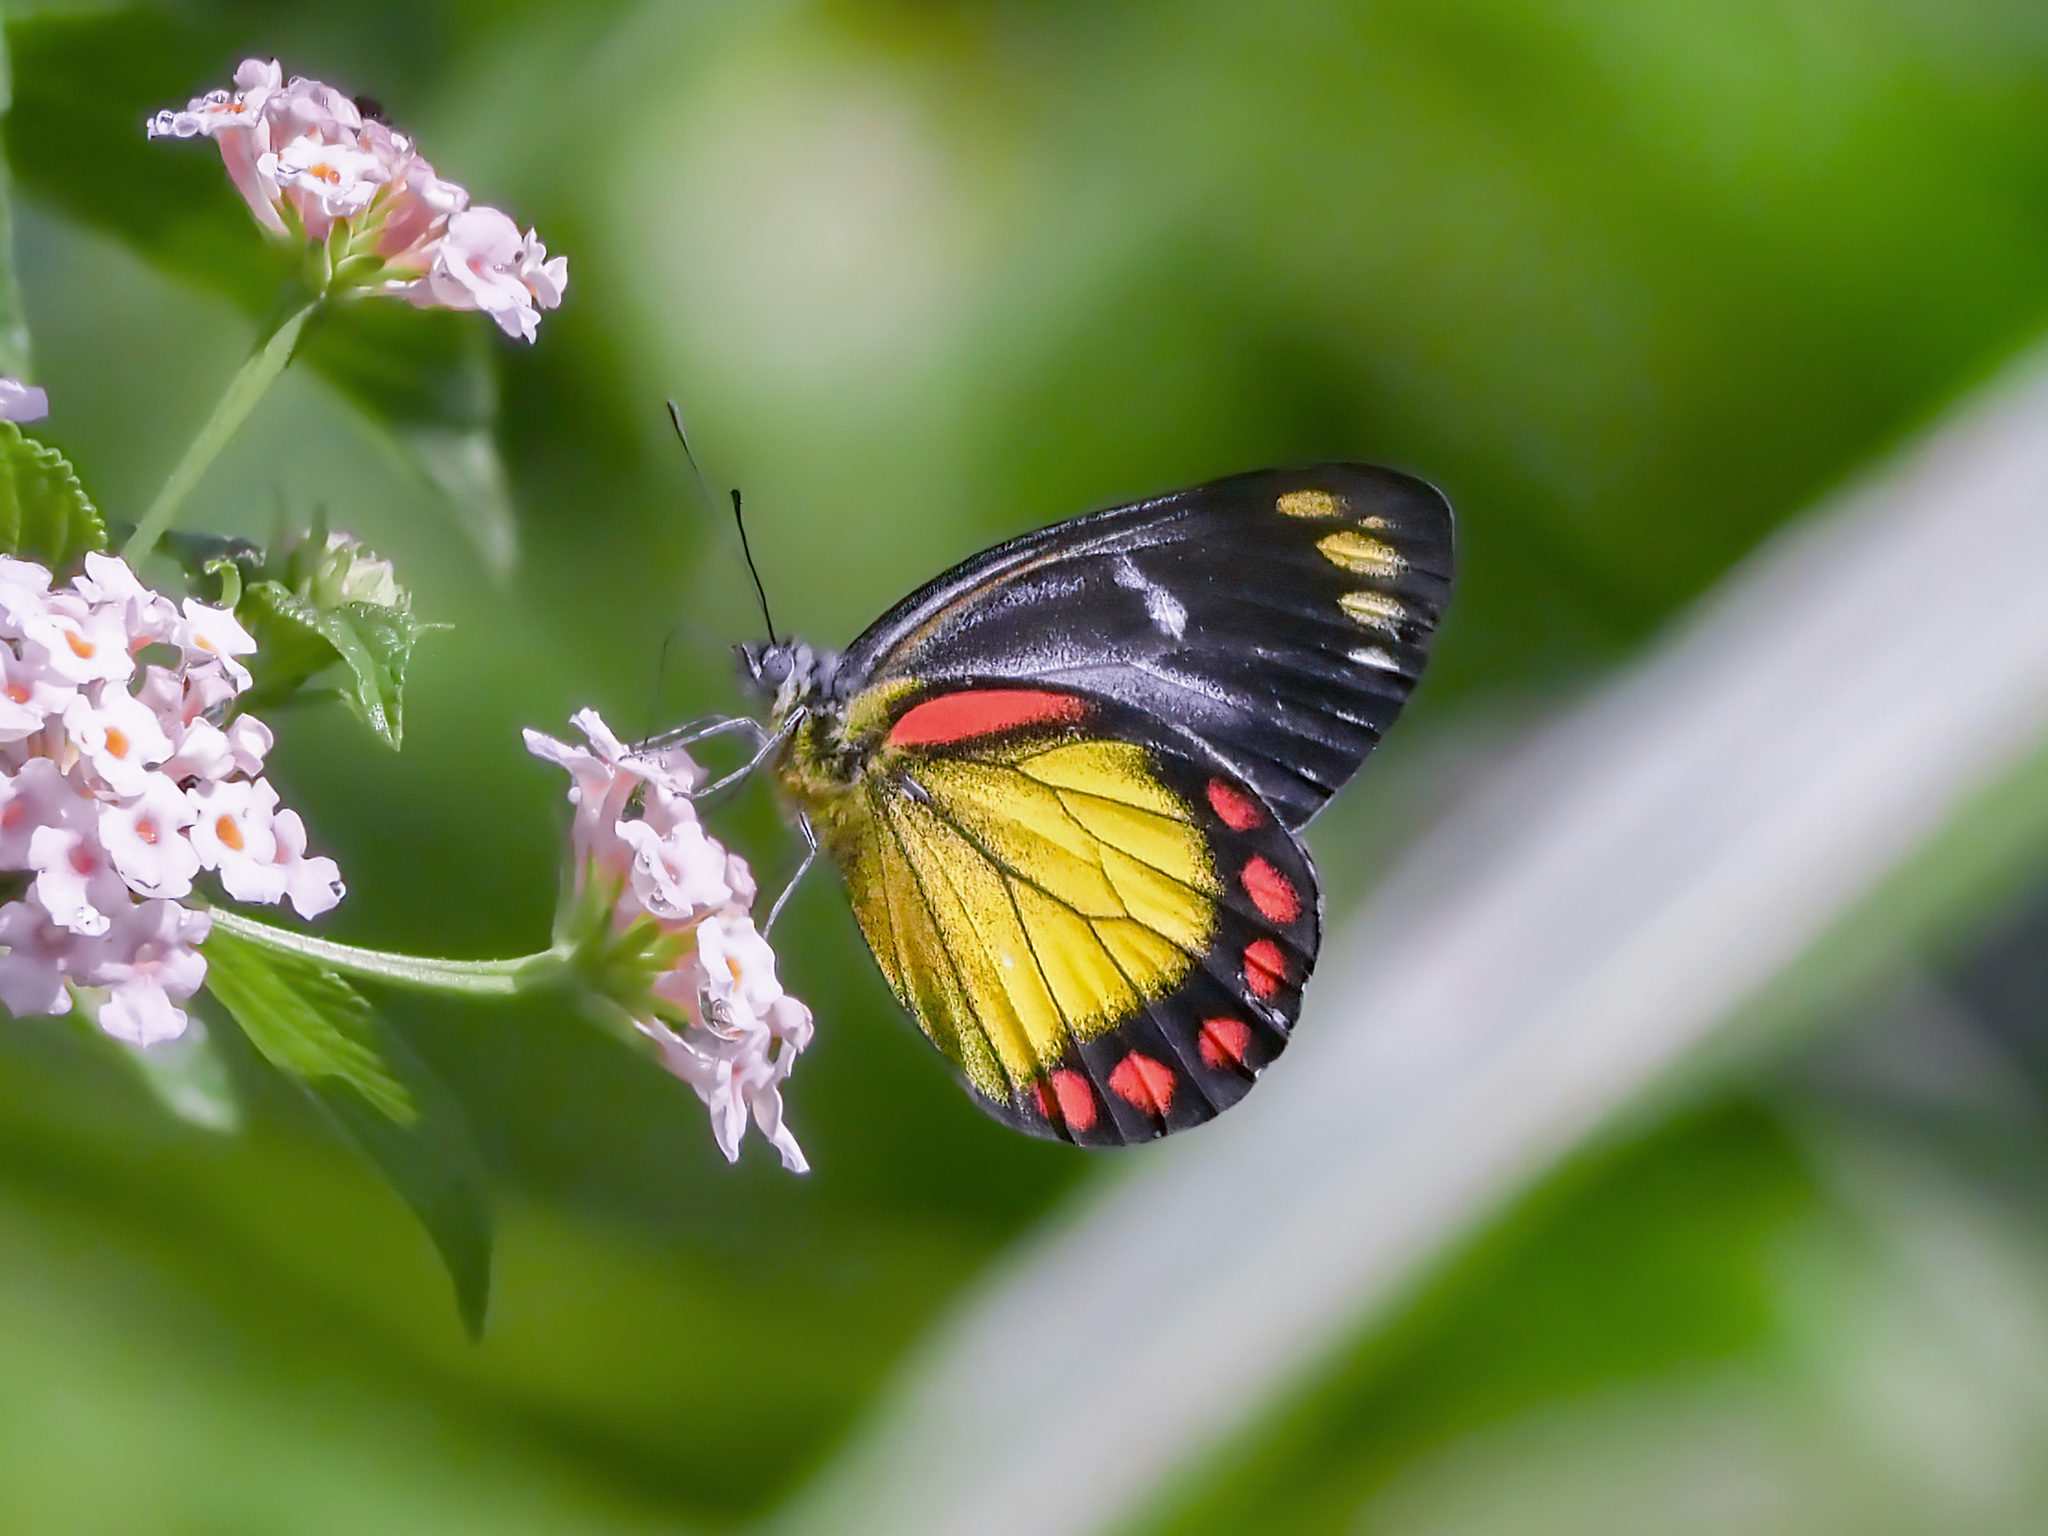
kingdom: Animalia
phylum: Arthropoda
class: Insecta
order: Lepidoptera
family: Pieridae
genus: Delias
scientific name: Delias eumolpe
